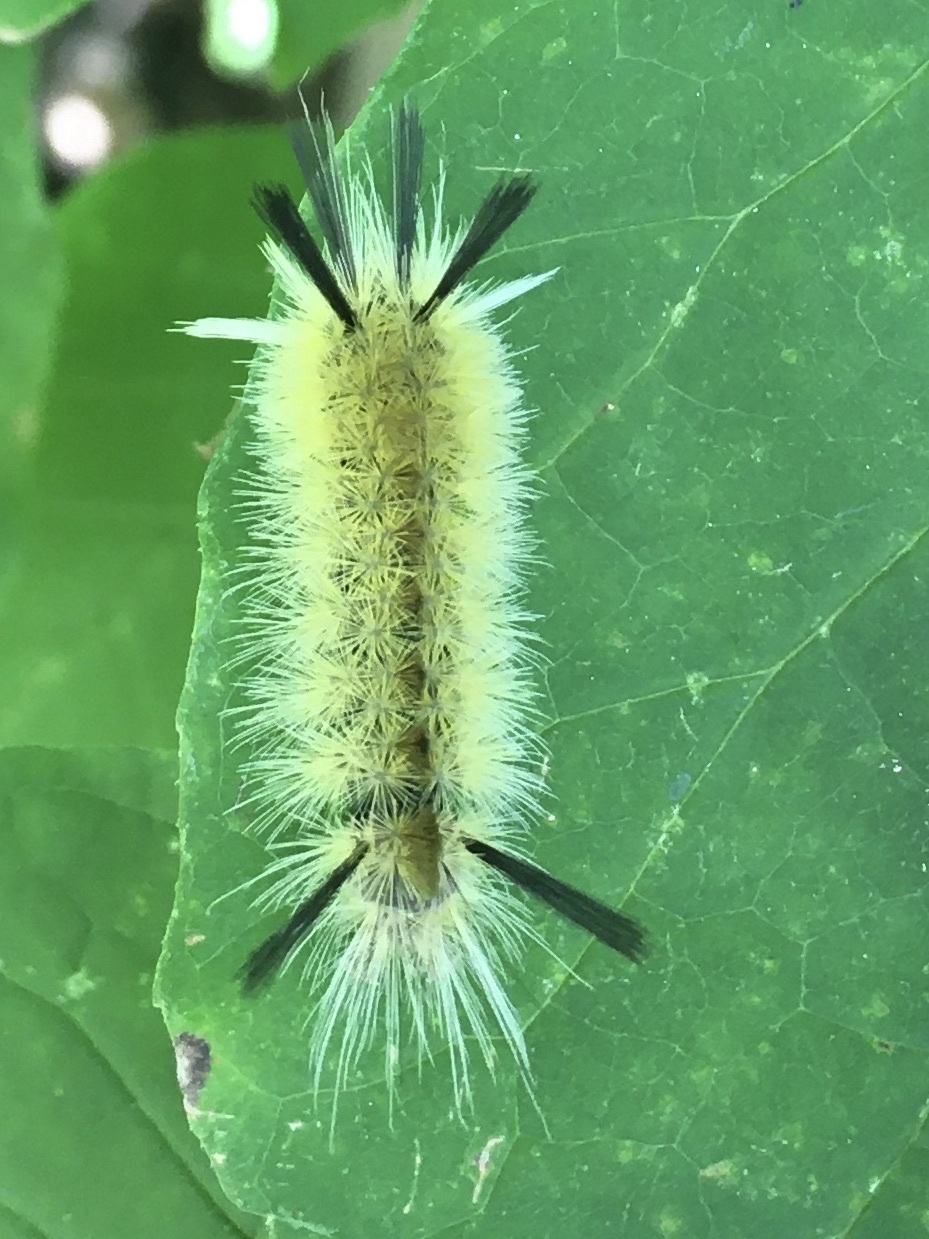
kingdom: Animalia
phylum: Arthropoda
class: Insecta
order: Lepidoptera
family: Erebidae
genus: Halysidota
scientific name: Halysidota tessellaris
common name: Banded tussock moth
